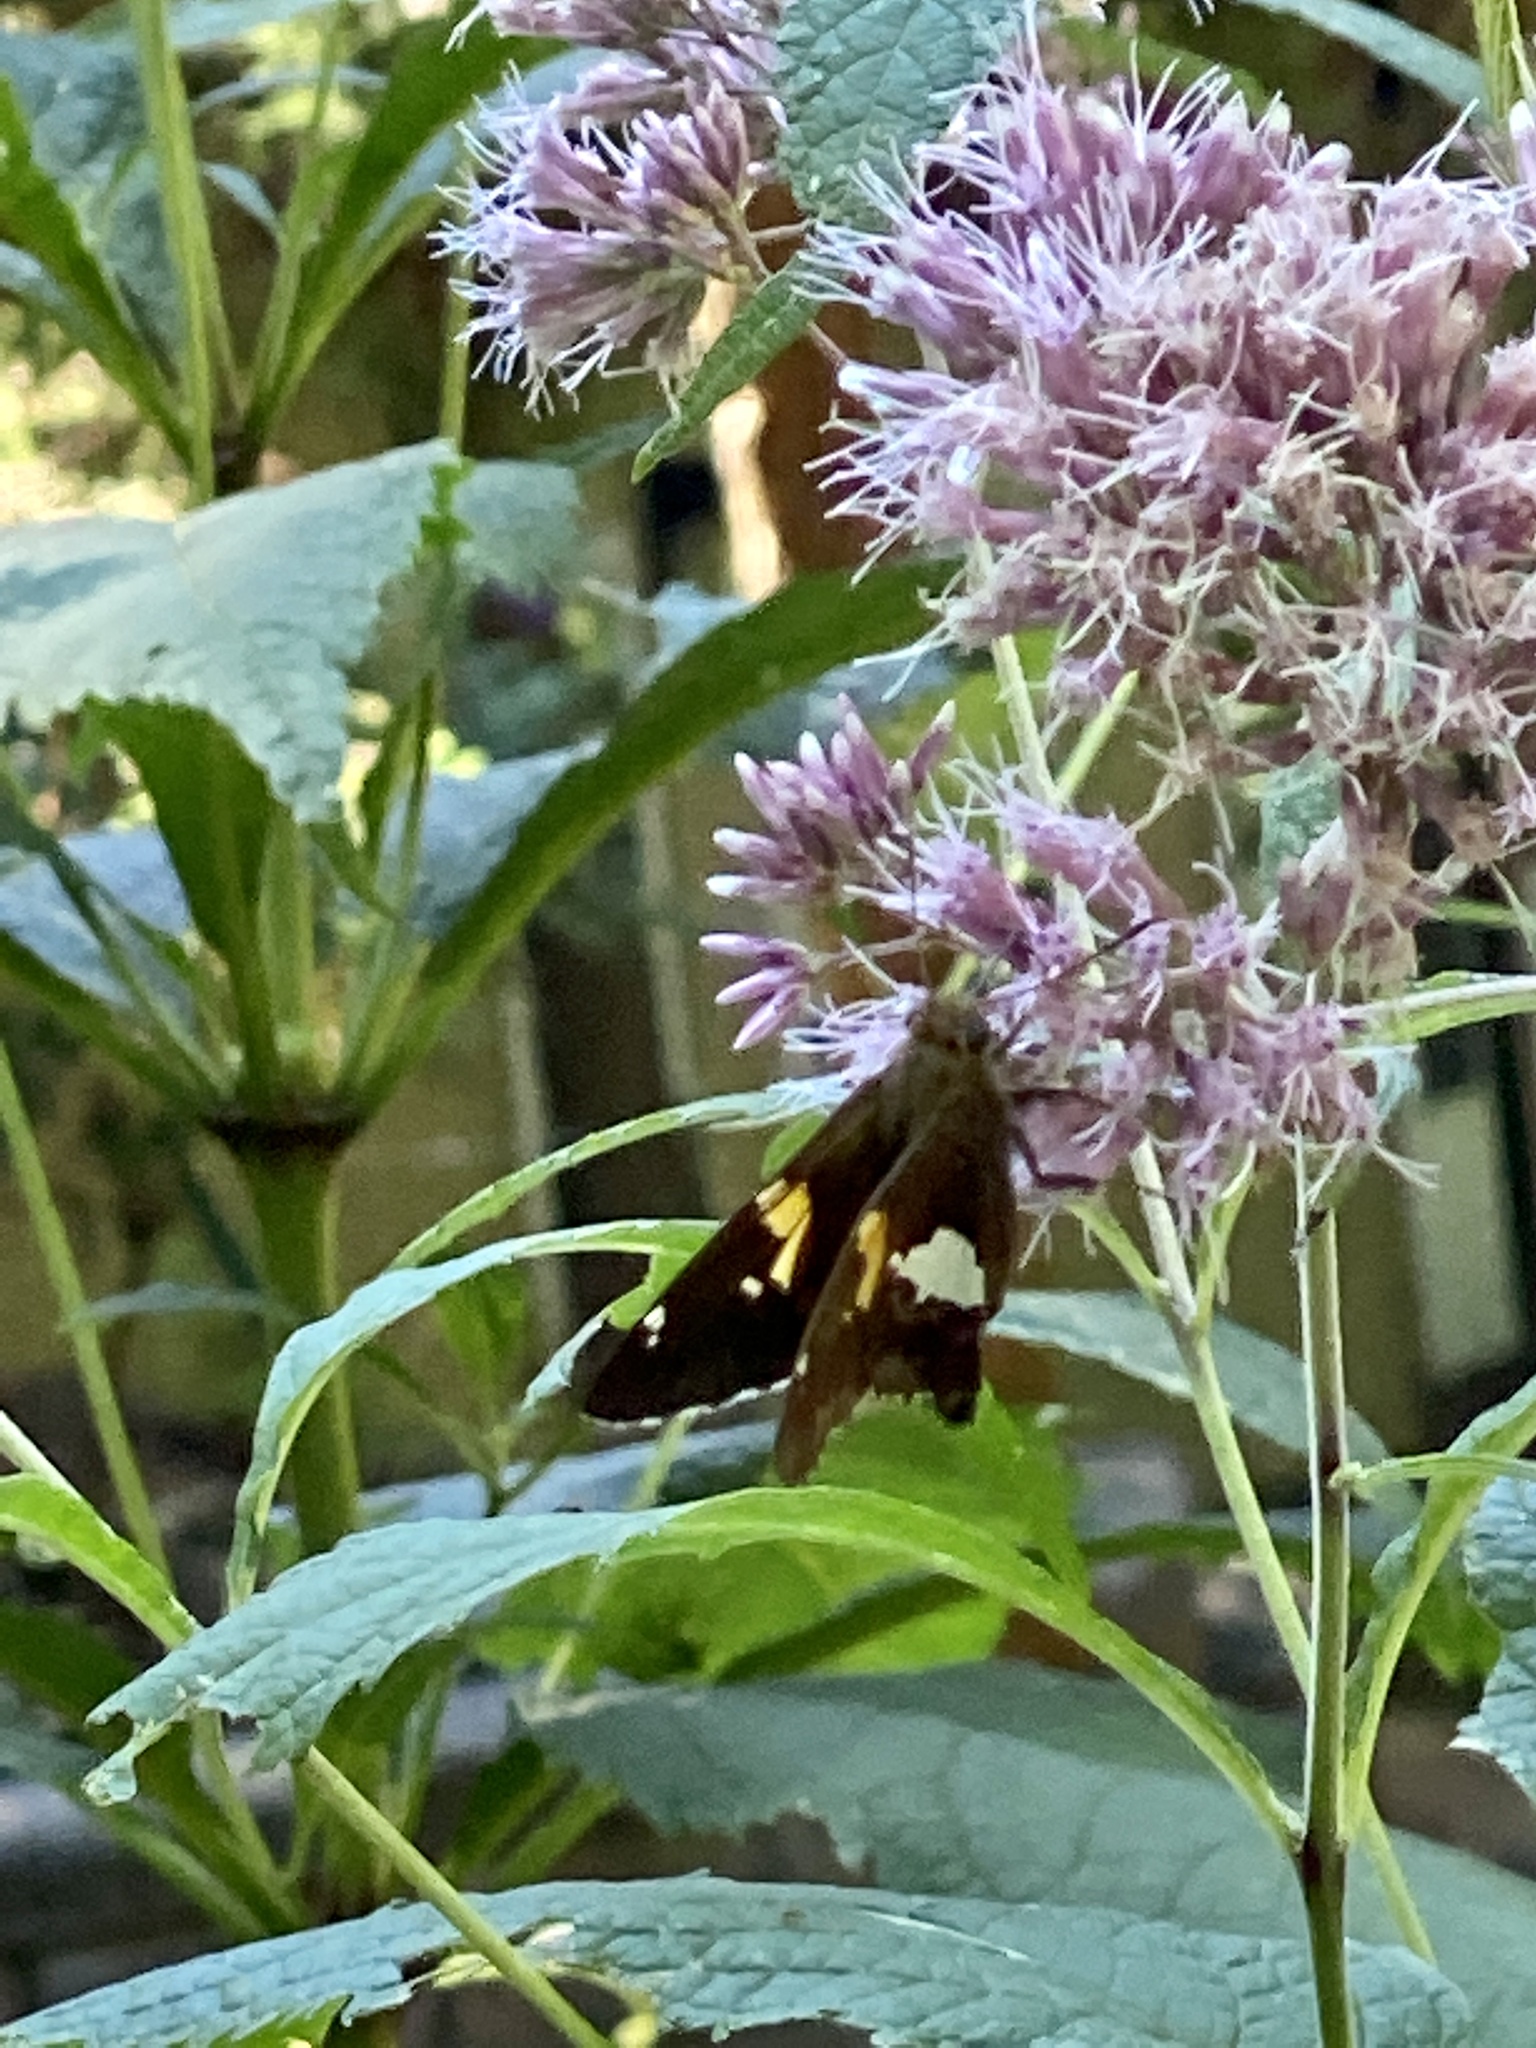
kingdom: Animalia
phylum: Arthropoda
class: Insecta
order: Lepidoptera
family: Hesperiidae
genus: Epargyreus
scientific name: Epargyreus clarus
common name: Silver-spotted skipper
